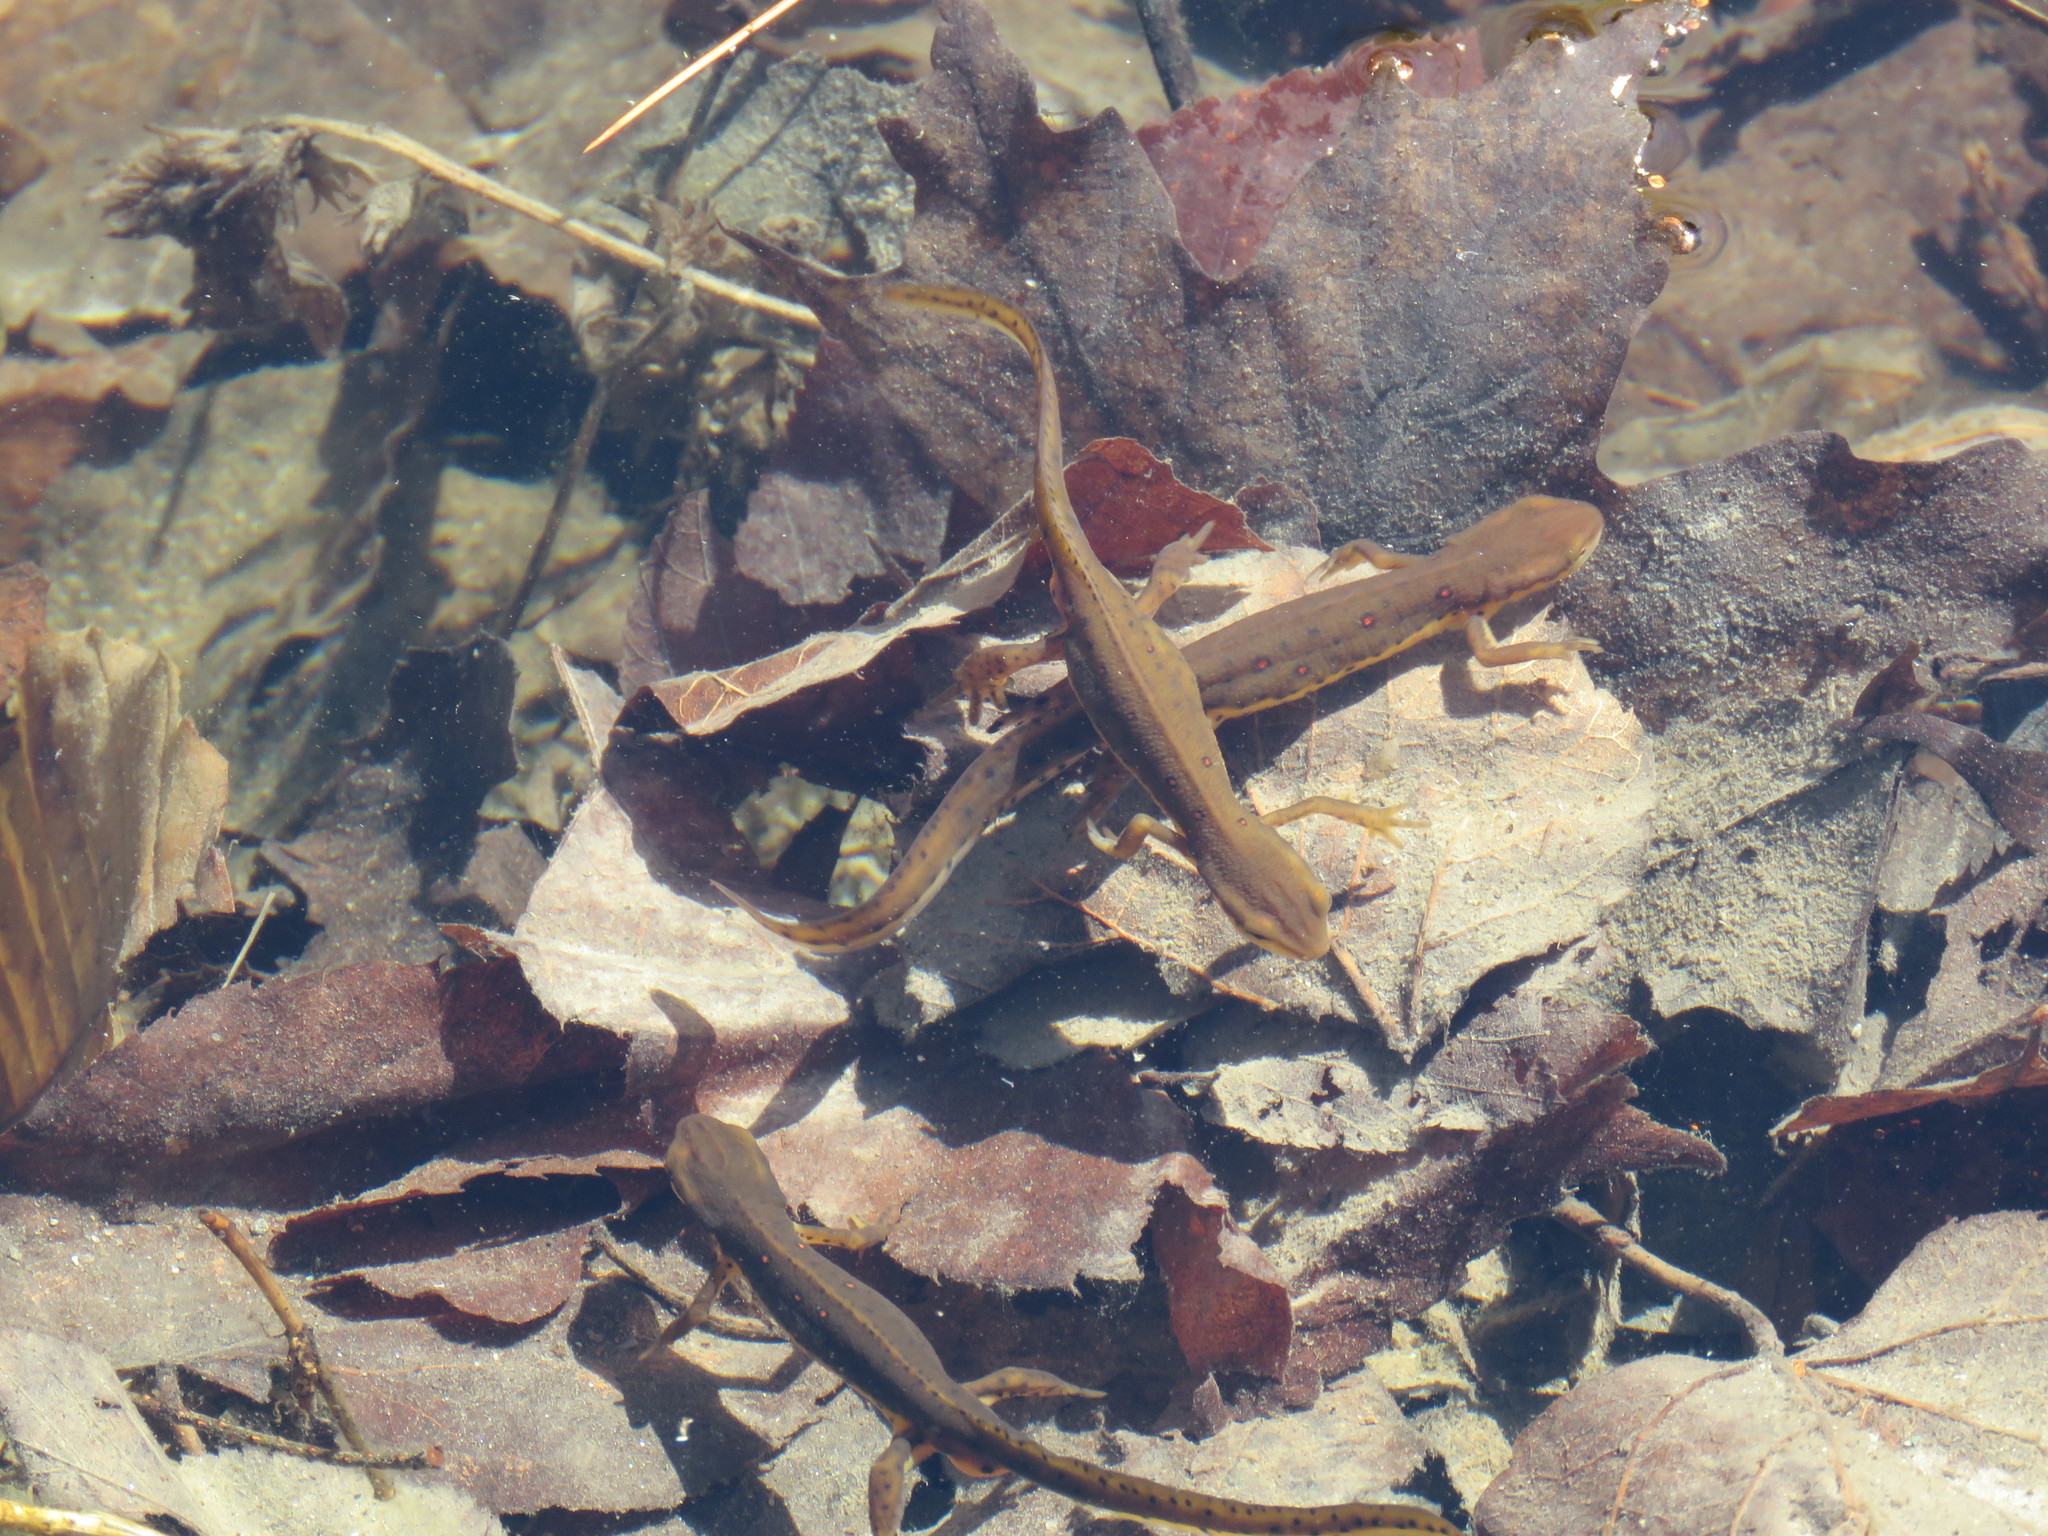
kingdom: Animalia
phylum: Chordata
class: Amphibia
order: Caudata
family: Salamandridae
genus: Notophthalmus
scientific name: Notophthalmus viridescens
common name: Eastern newt
